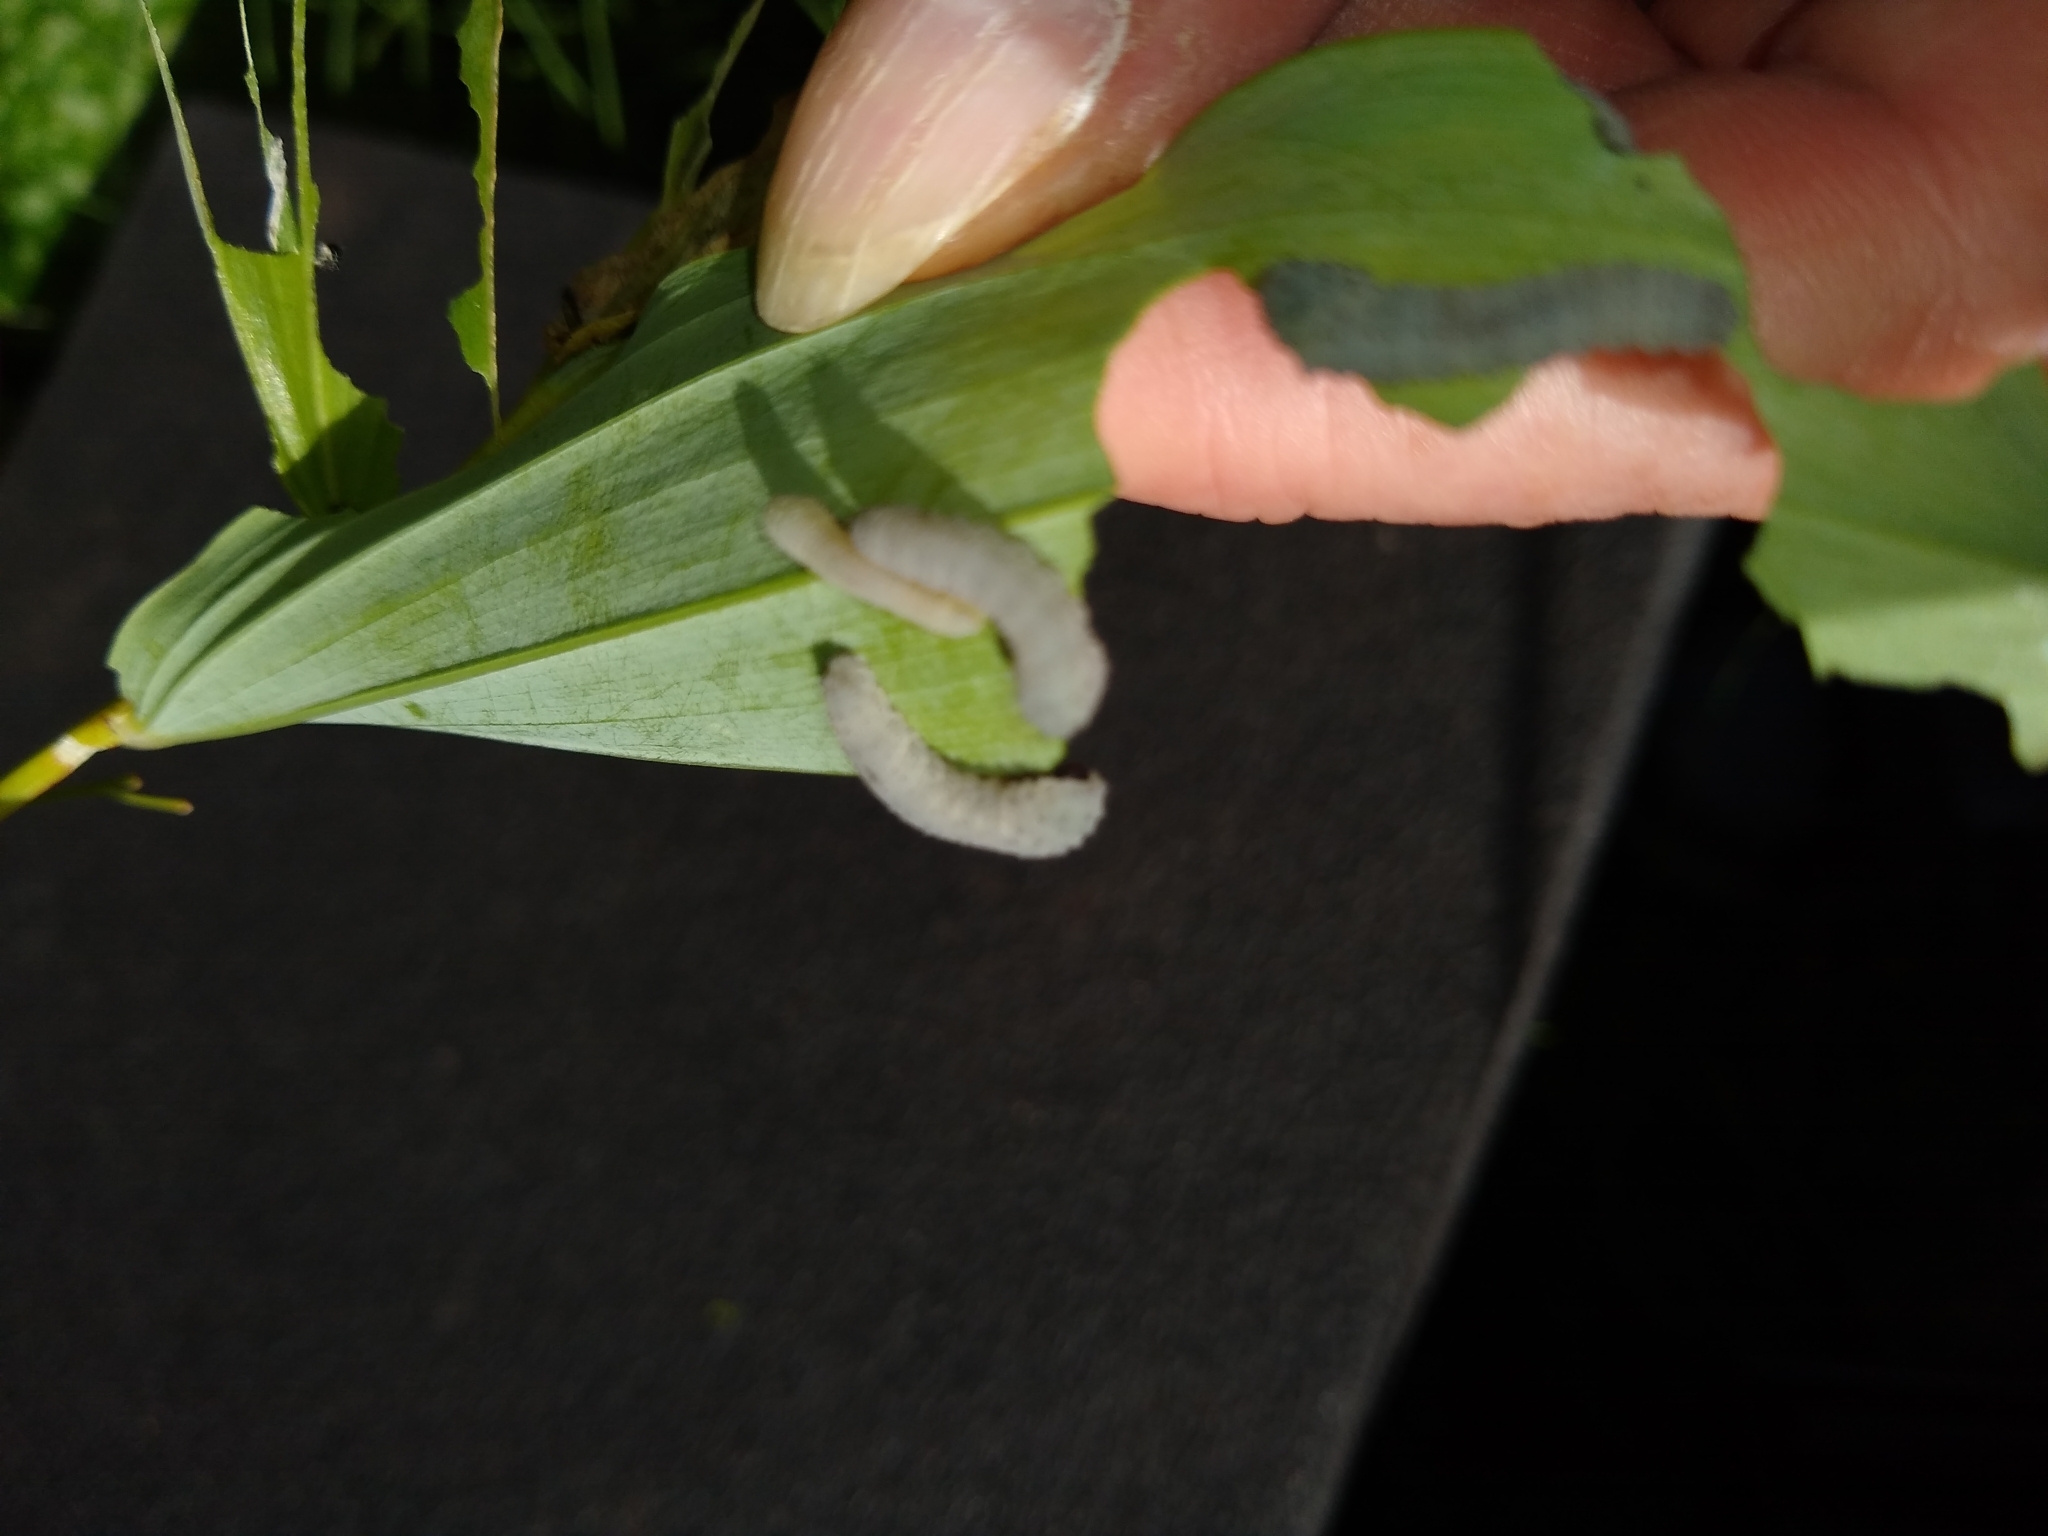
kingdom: Animalia
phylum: Arthropoda
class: Insecta
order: Hymenoptera
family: Tenthredinidae
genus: Phymatocera
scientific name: Phymatocera aterrima
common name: Solomon's-seal sawfly
